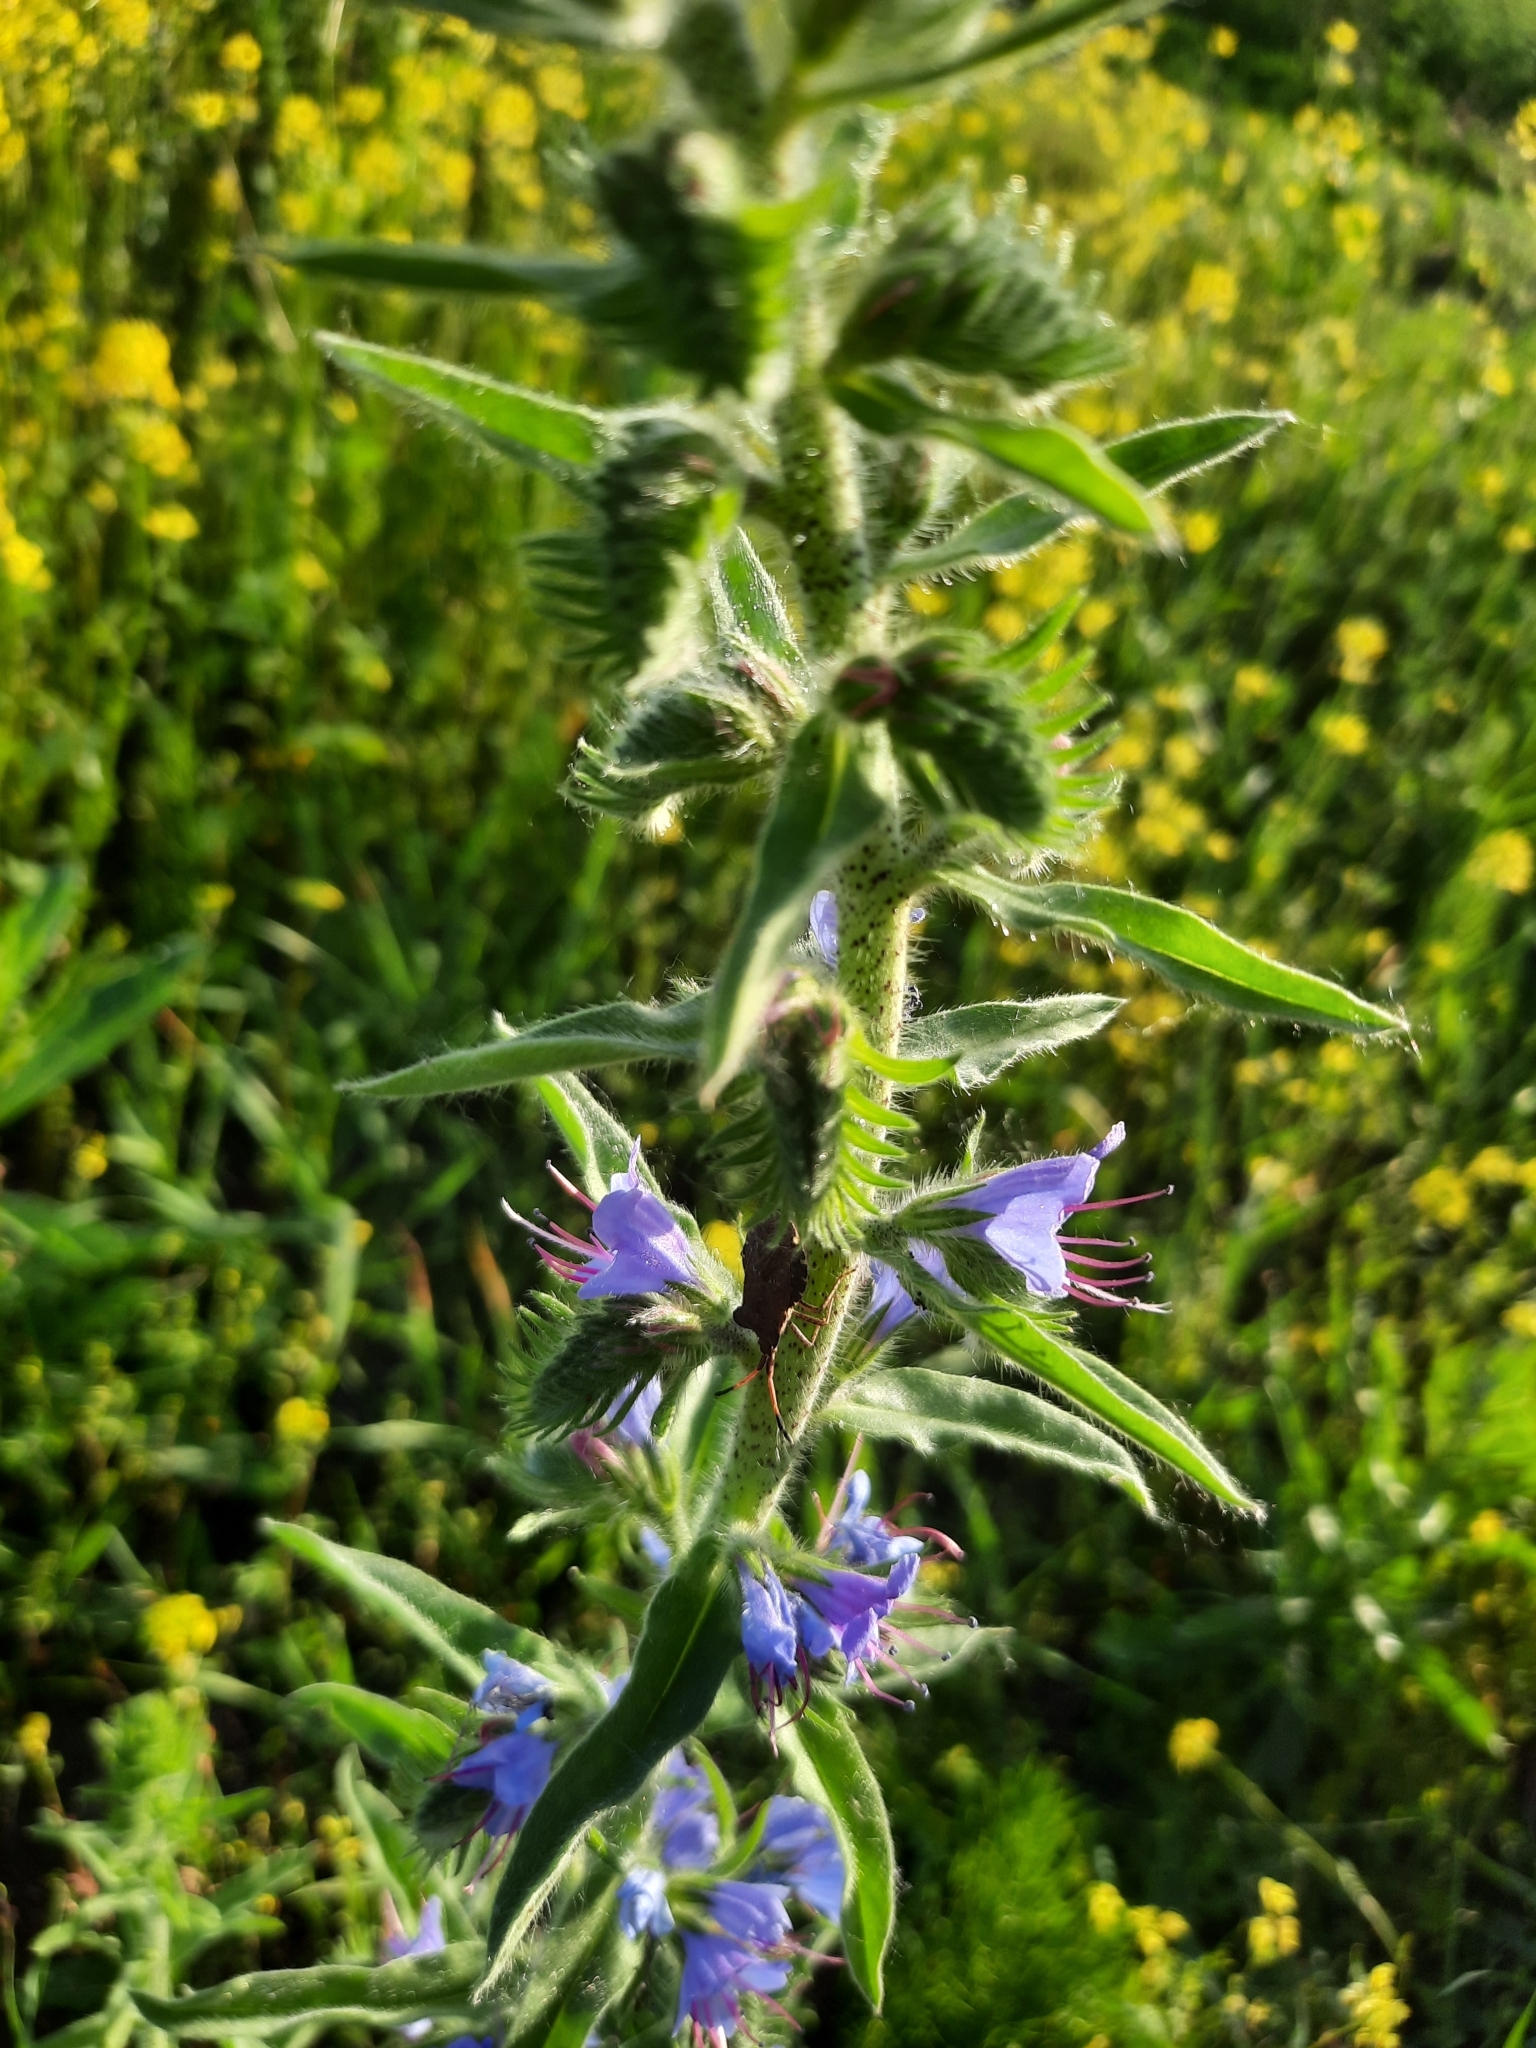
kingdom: Animalia
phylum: Arthropoda
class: Insecta
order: Hemiptera
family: Coreidae
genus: Enoplops
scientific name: Enoplops scapha
